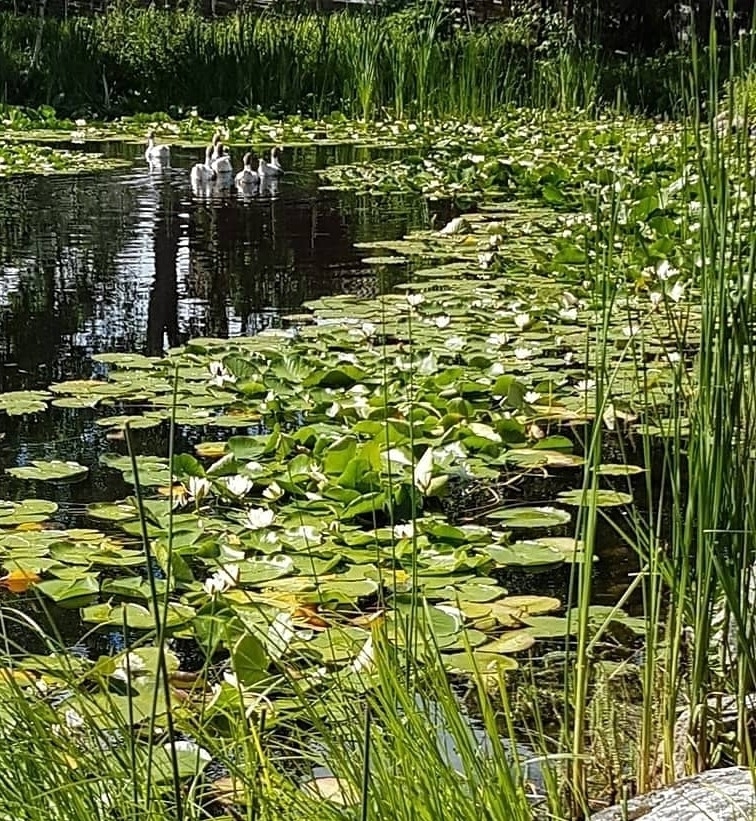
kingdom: Plantae
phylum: Tracheophyta
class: Magnoliopsida
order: Nymphaeales
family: Nymphaeaceae
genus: Nymphaea
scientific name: Nymphaea alba
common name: White water-lily
